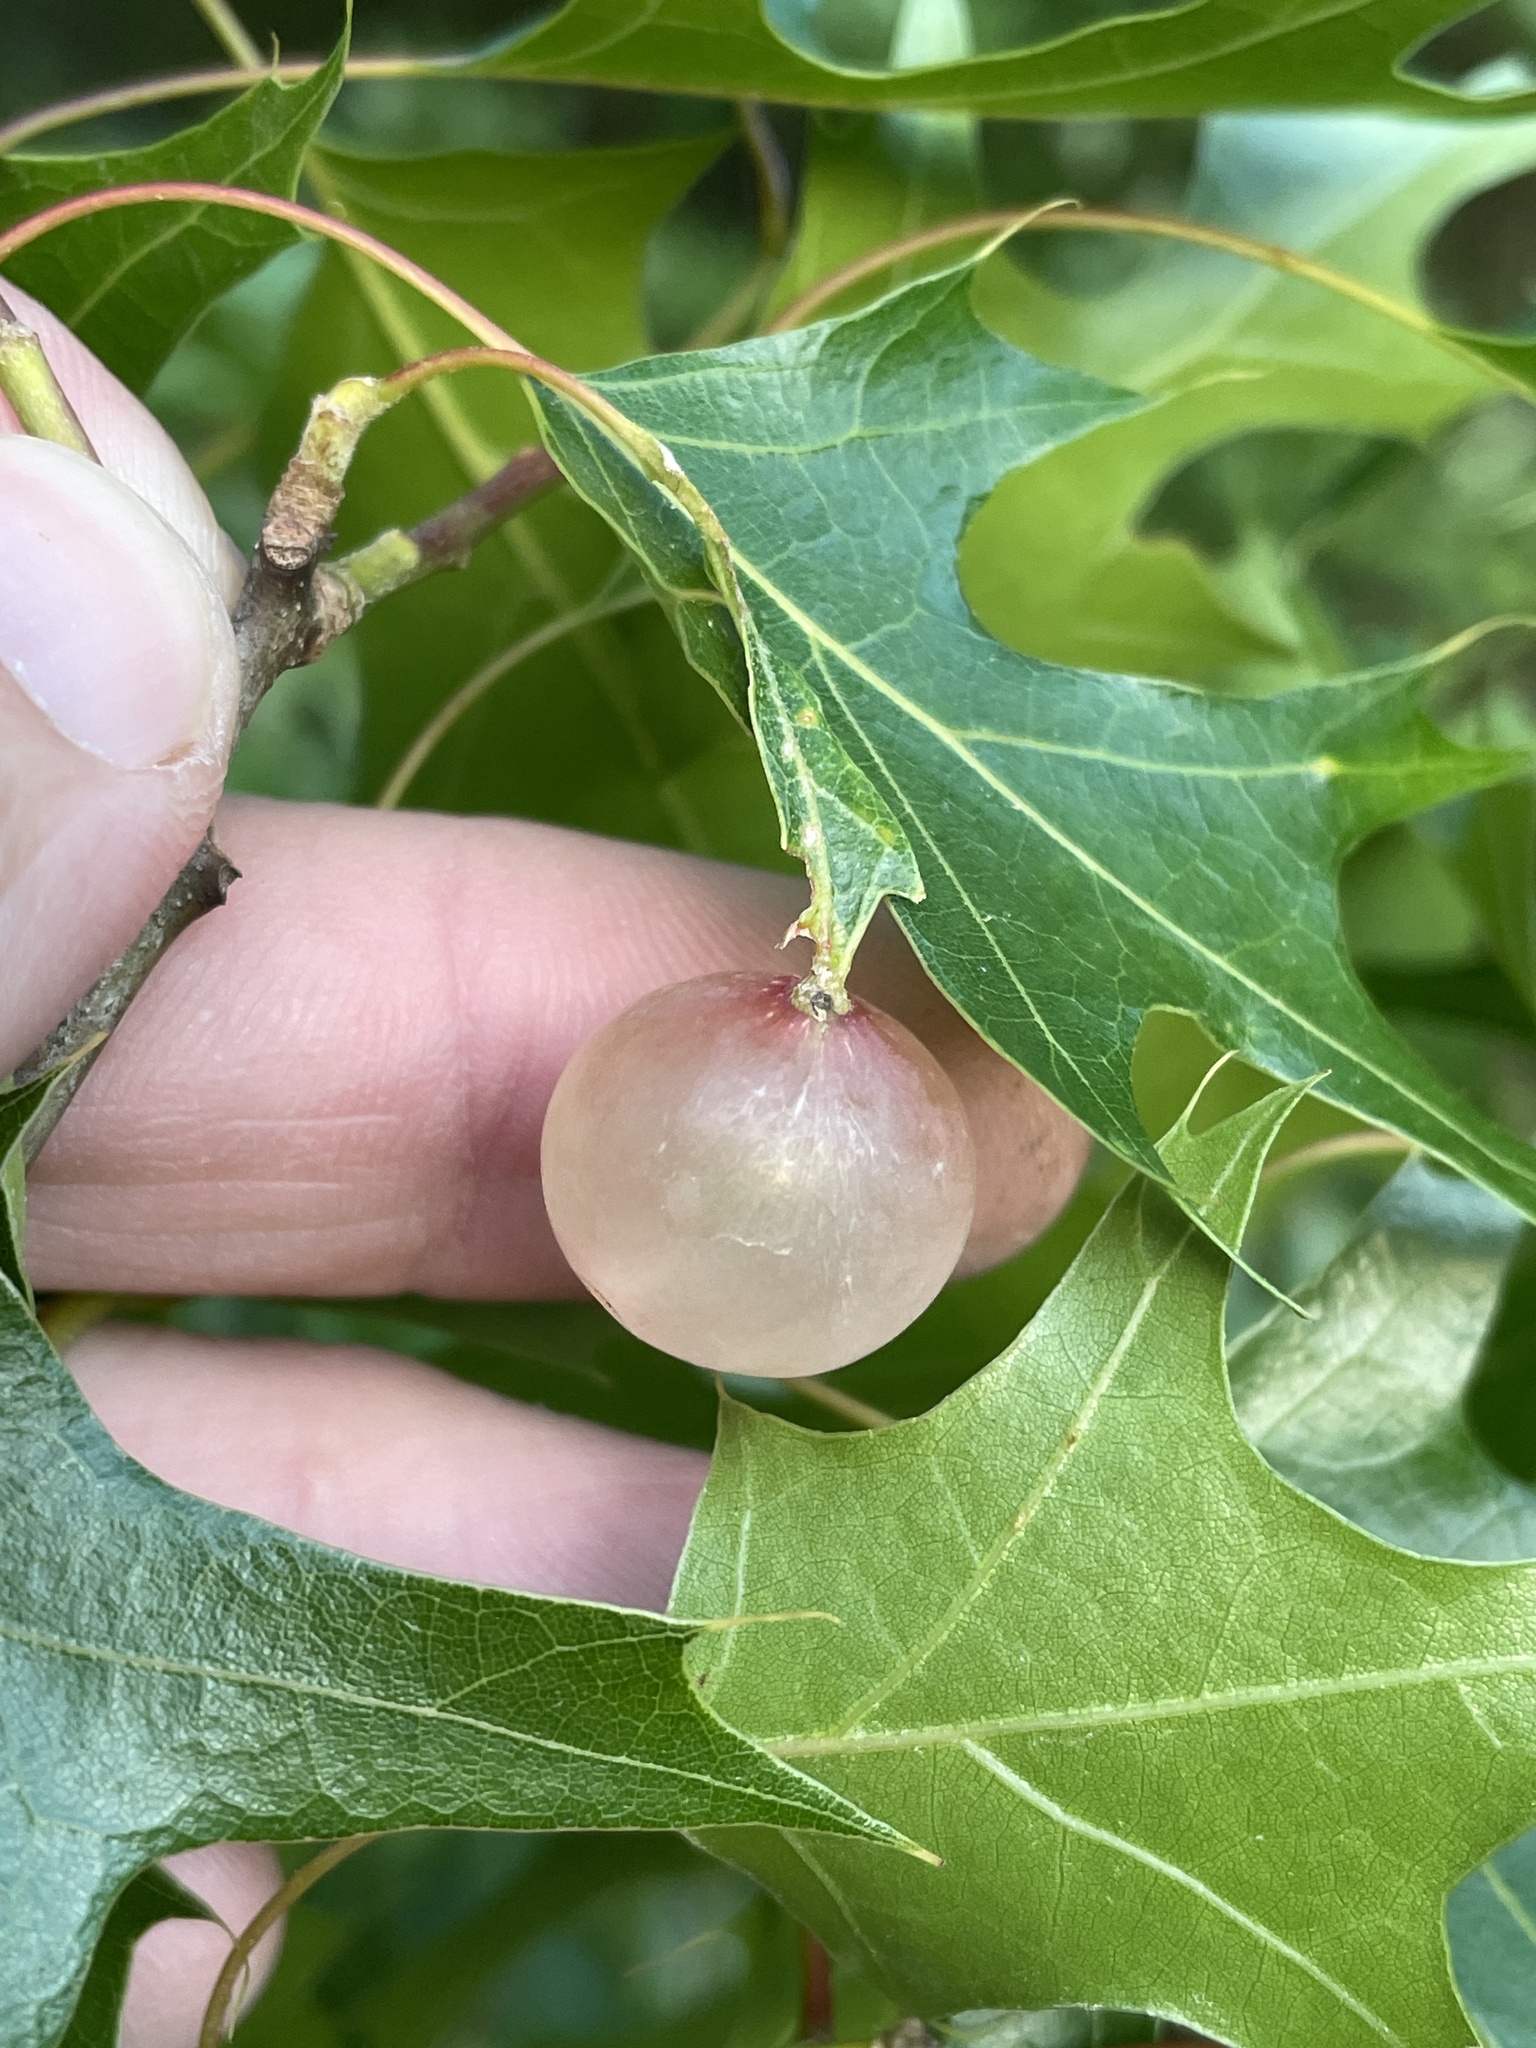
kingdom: Animalia
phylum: Arthropoda
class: Insecta
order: Hymenoptera
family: Cynipidae
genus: Amphibolips
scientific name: Amphibolips
